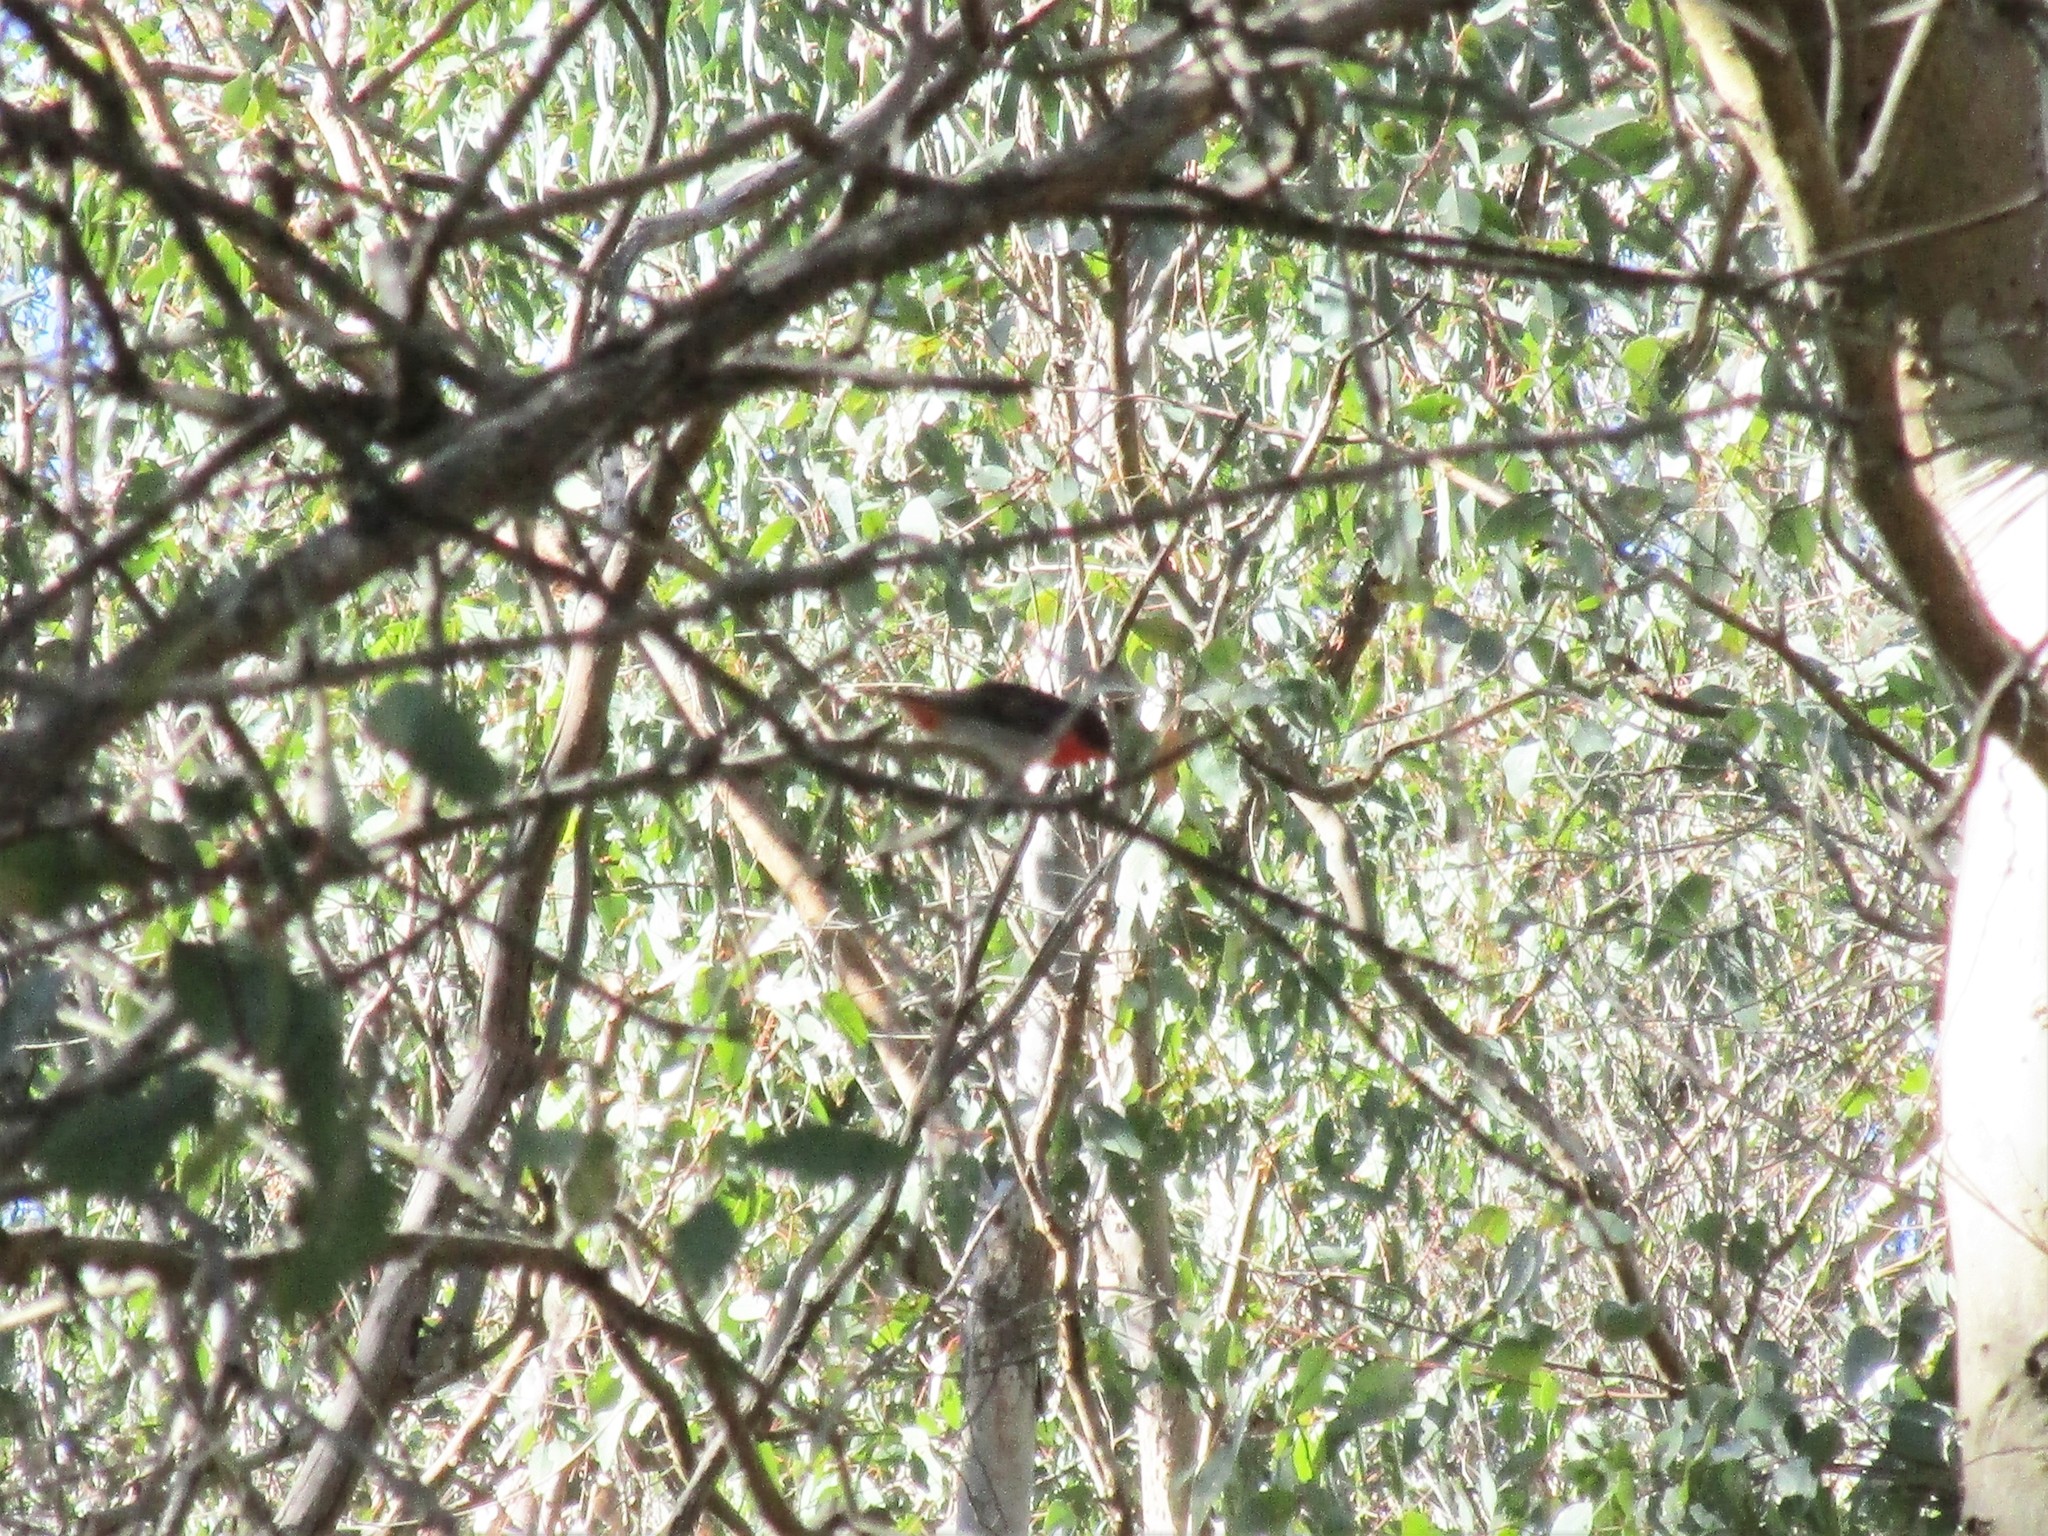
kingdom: Animalia
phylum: Chordata
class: Aves
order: Passeriformes
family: Dicaeidae
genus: Dicaeum
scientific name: Dicaeum hirundinaceum
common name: Mistletoebird
